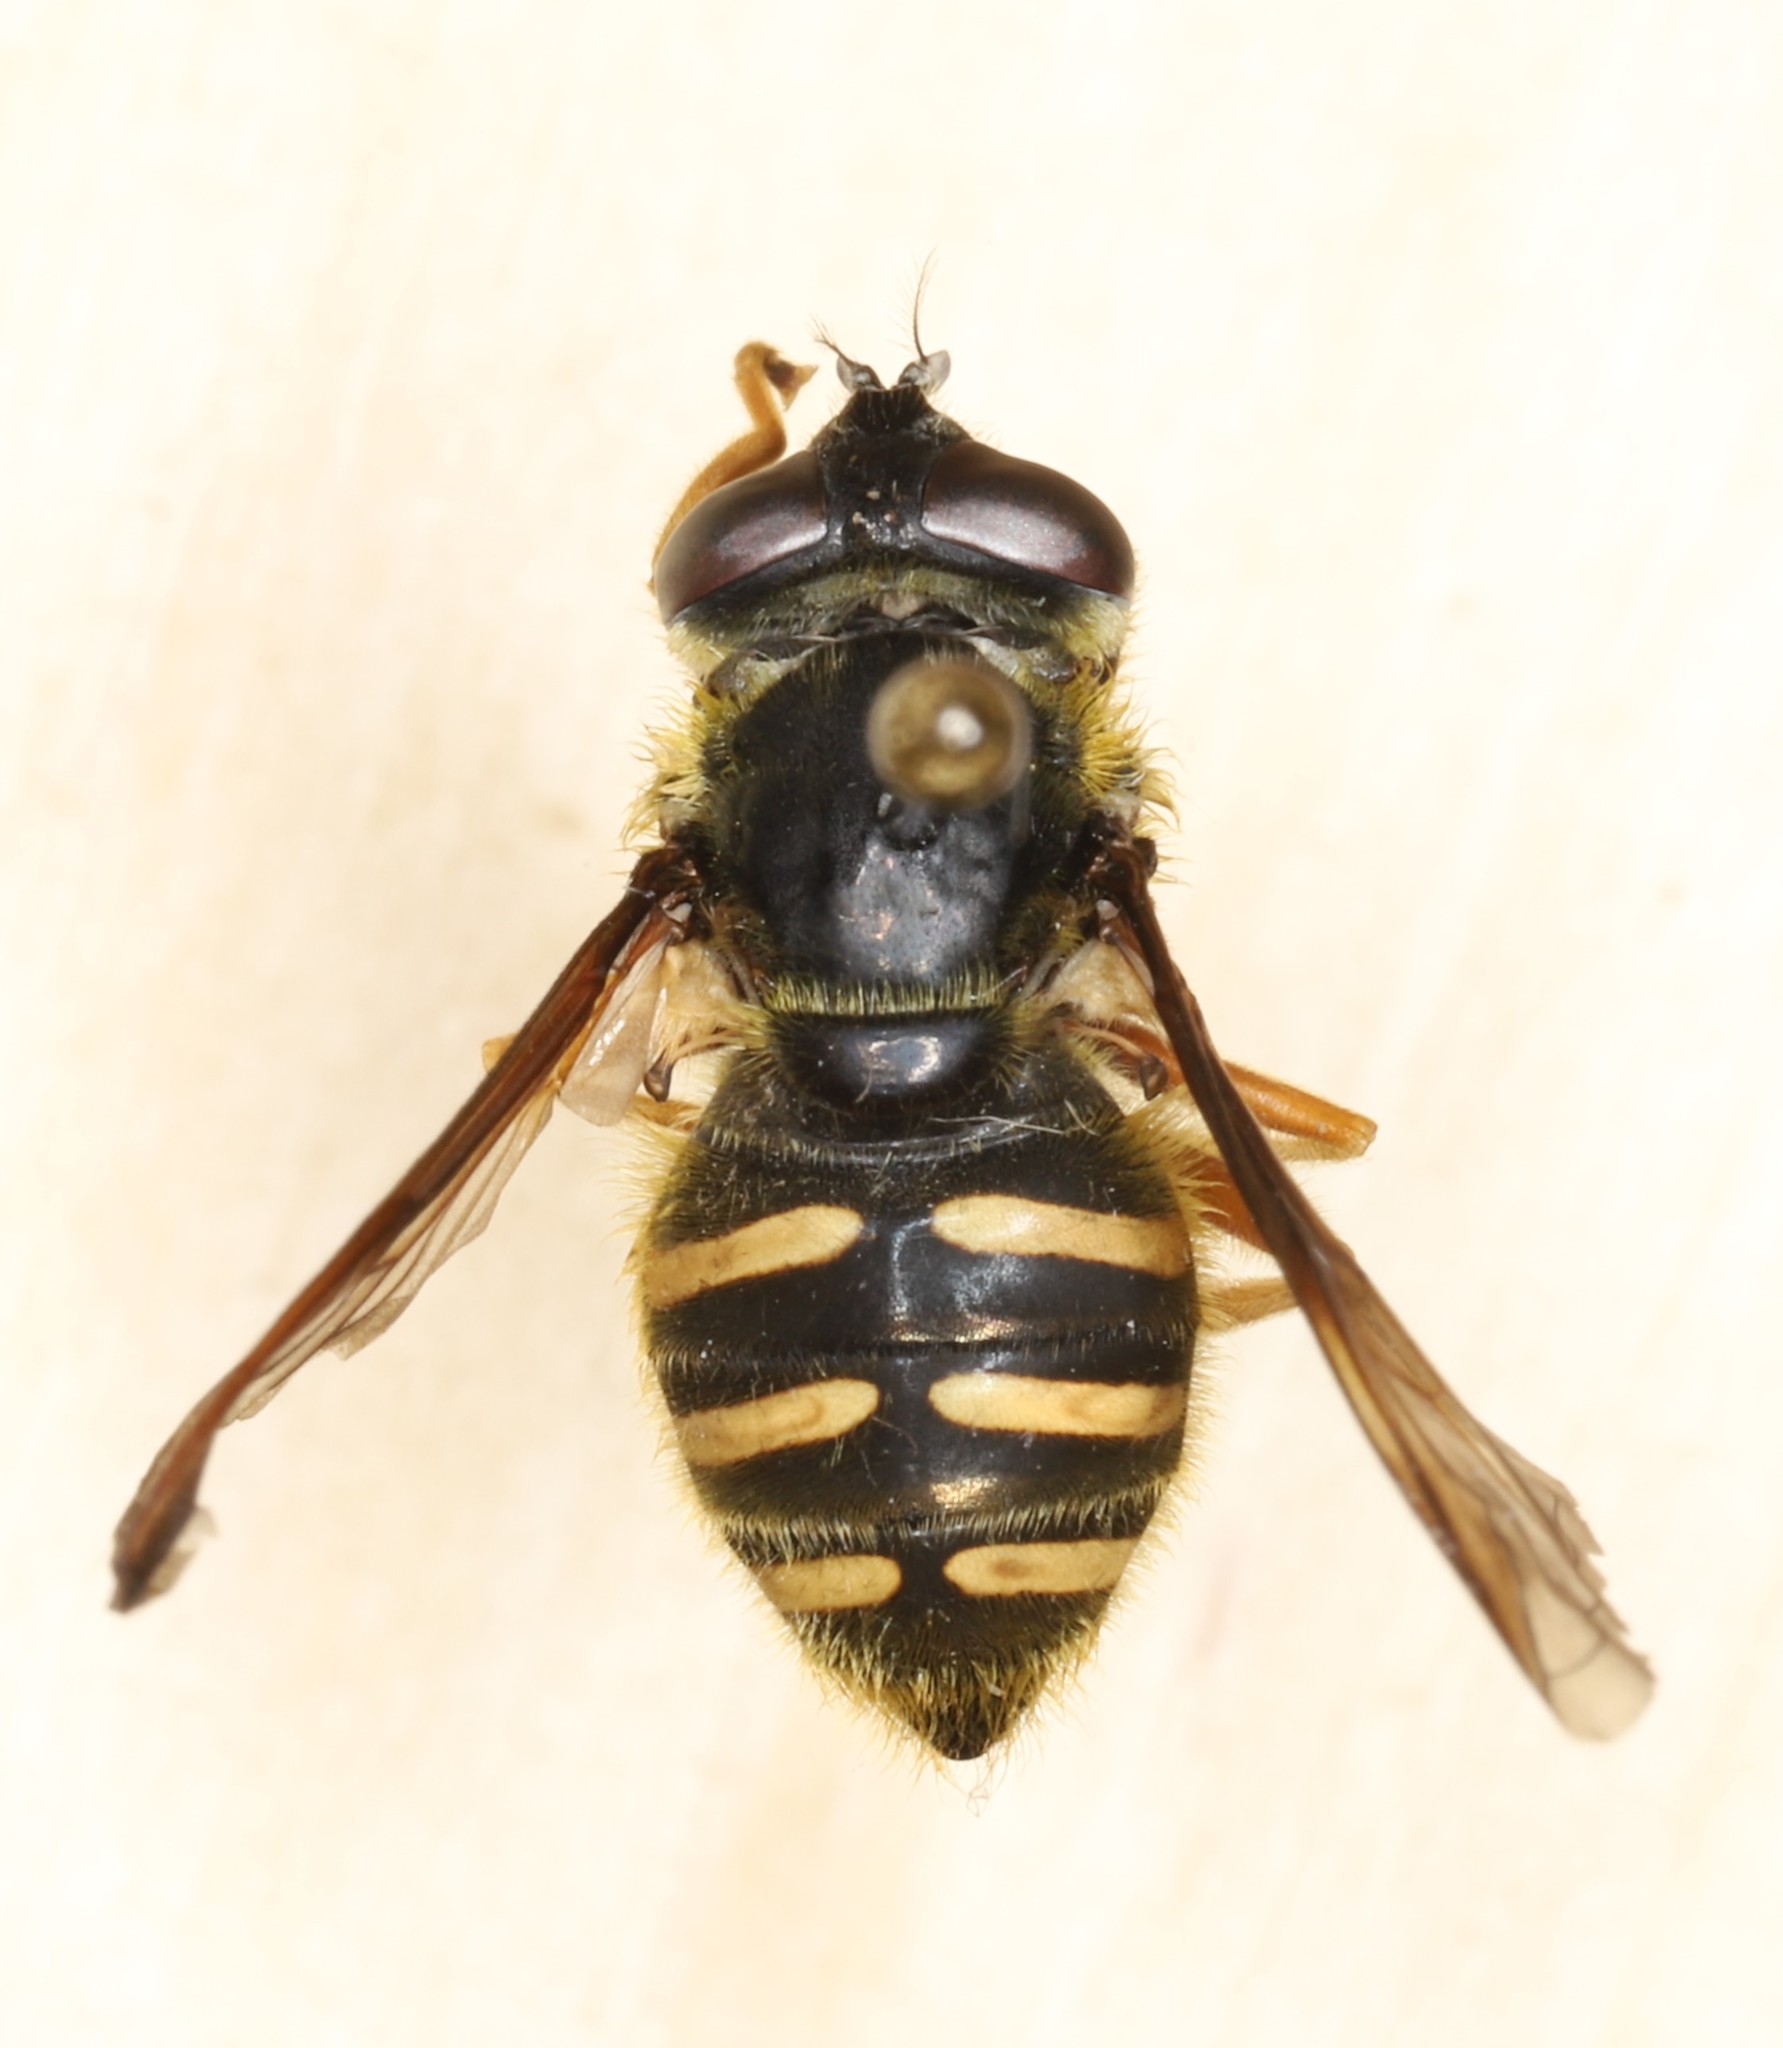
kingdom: Animalia
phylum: Arthropoda
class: Insecta
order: Diptera
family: Syrphidae
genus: Sericomyia
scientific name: Sericomyia chrysotoxoides
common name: Oblique-banded pond fly
